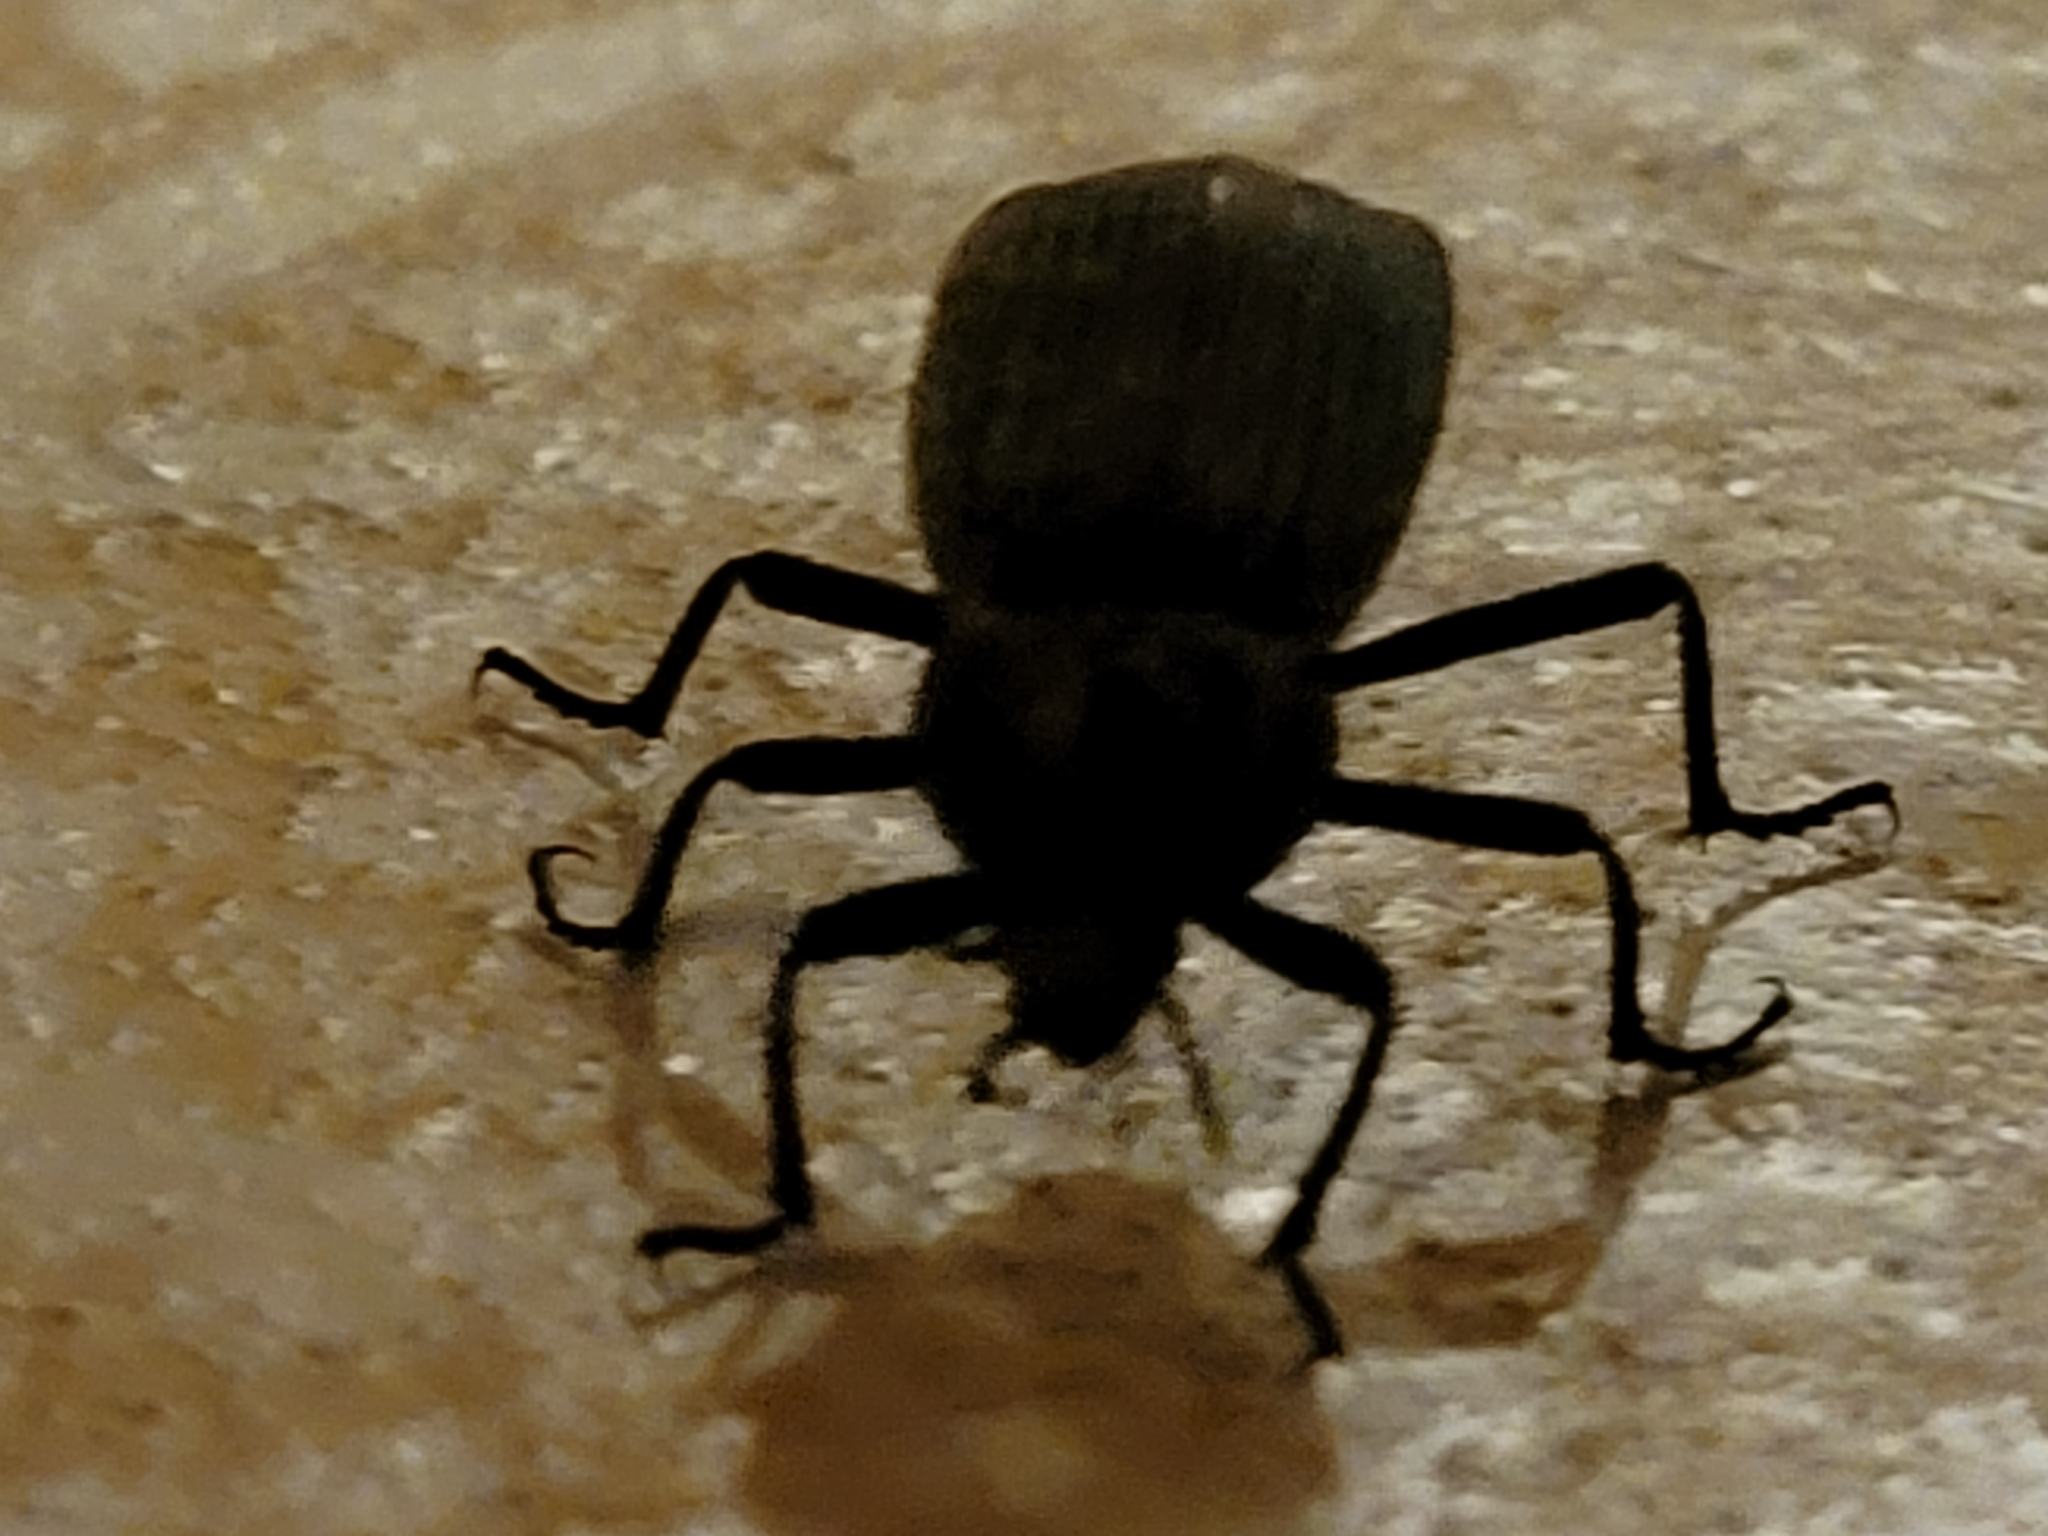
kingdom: Animalia
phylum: Arthropoda
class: Insecta
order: Coleoptera
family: Tenebrionidae
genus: Eleodes
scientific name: Eleodes suturalis
